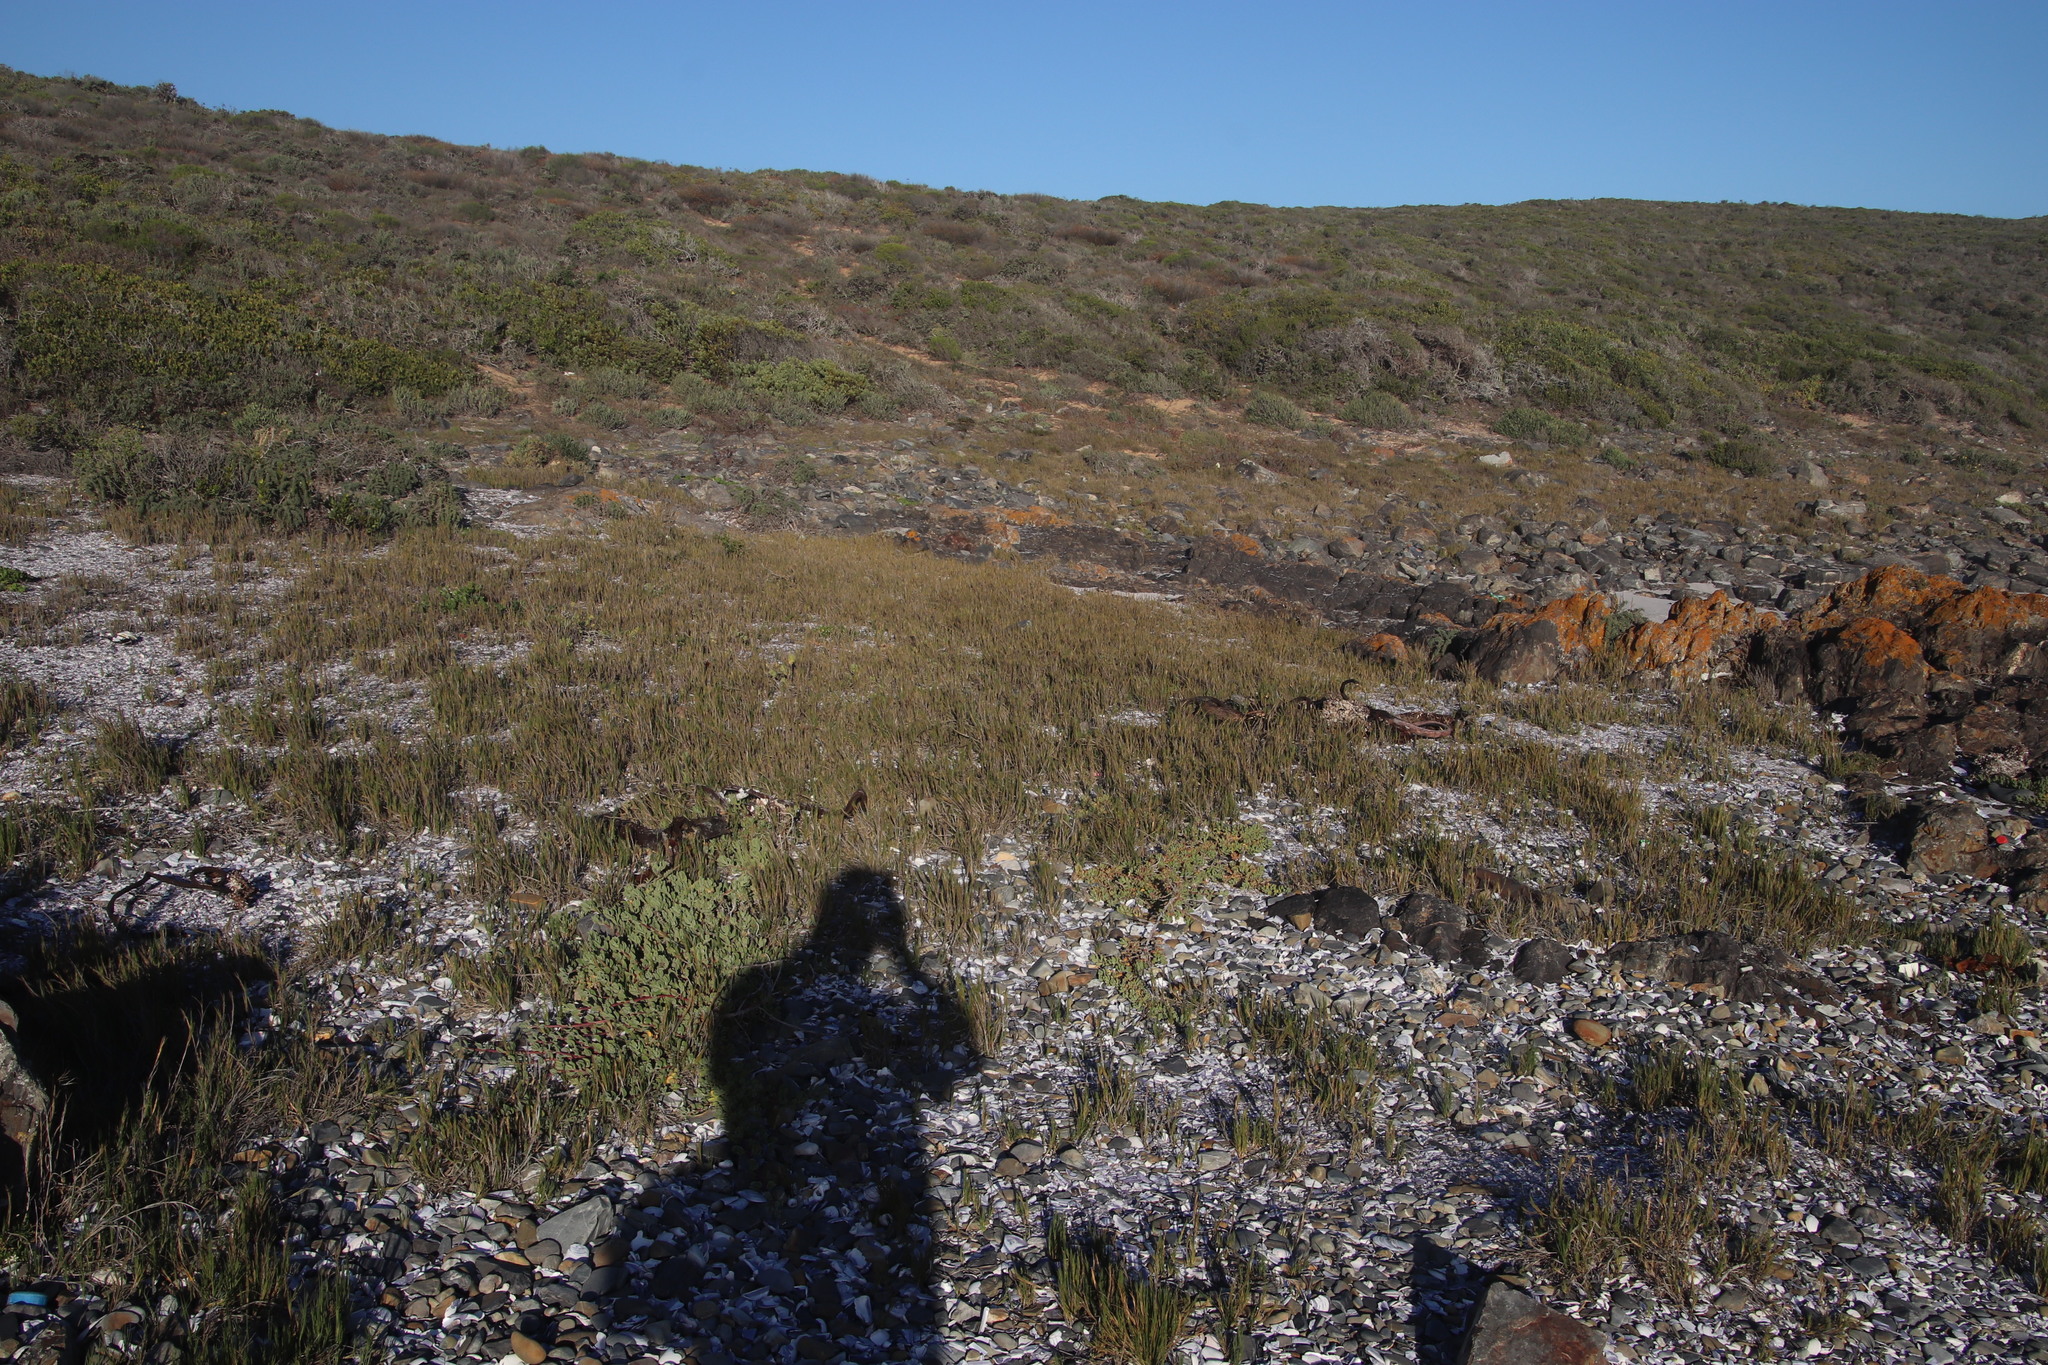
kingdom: Plantae
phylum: Tracheophyta
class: Liliopsida
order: Poales
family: Poaceae
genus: Sporobolus
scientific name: Sporobolus virginicus
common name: Beach dropseed
